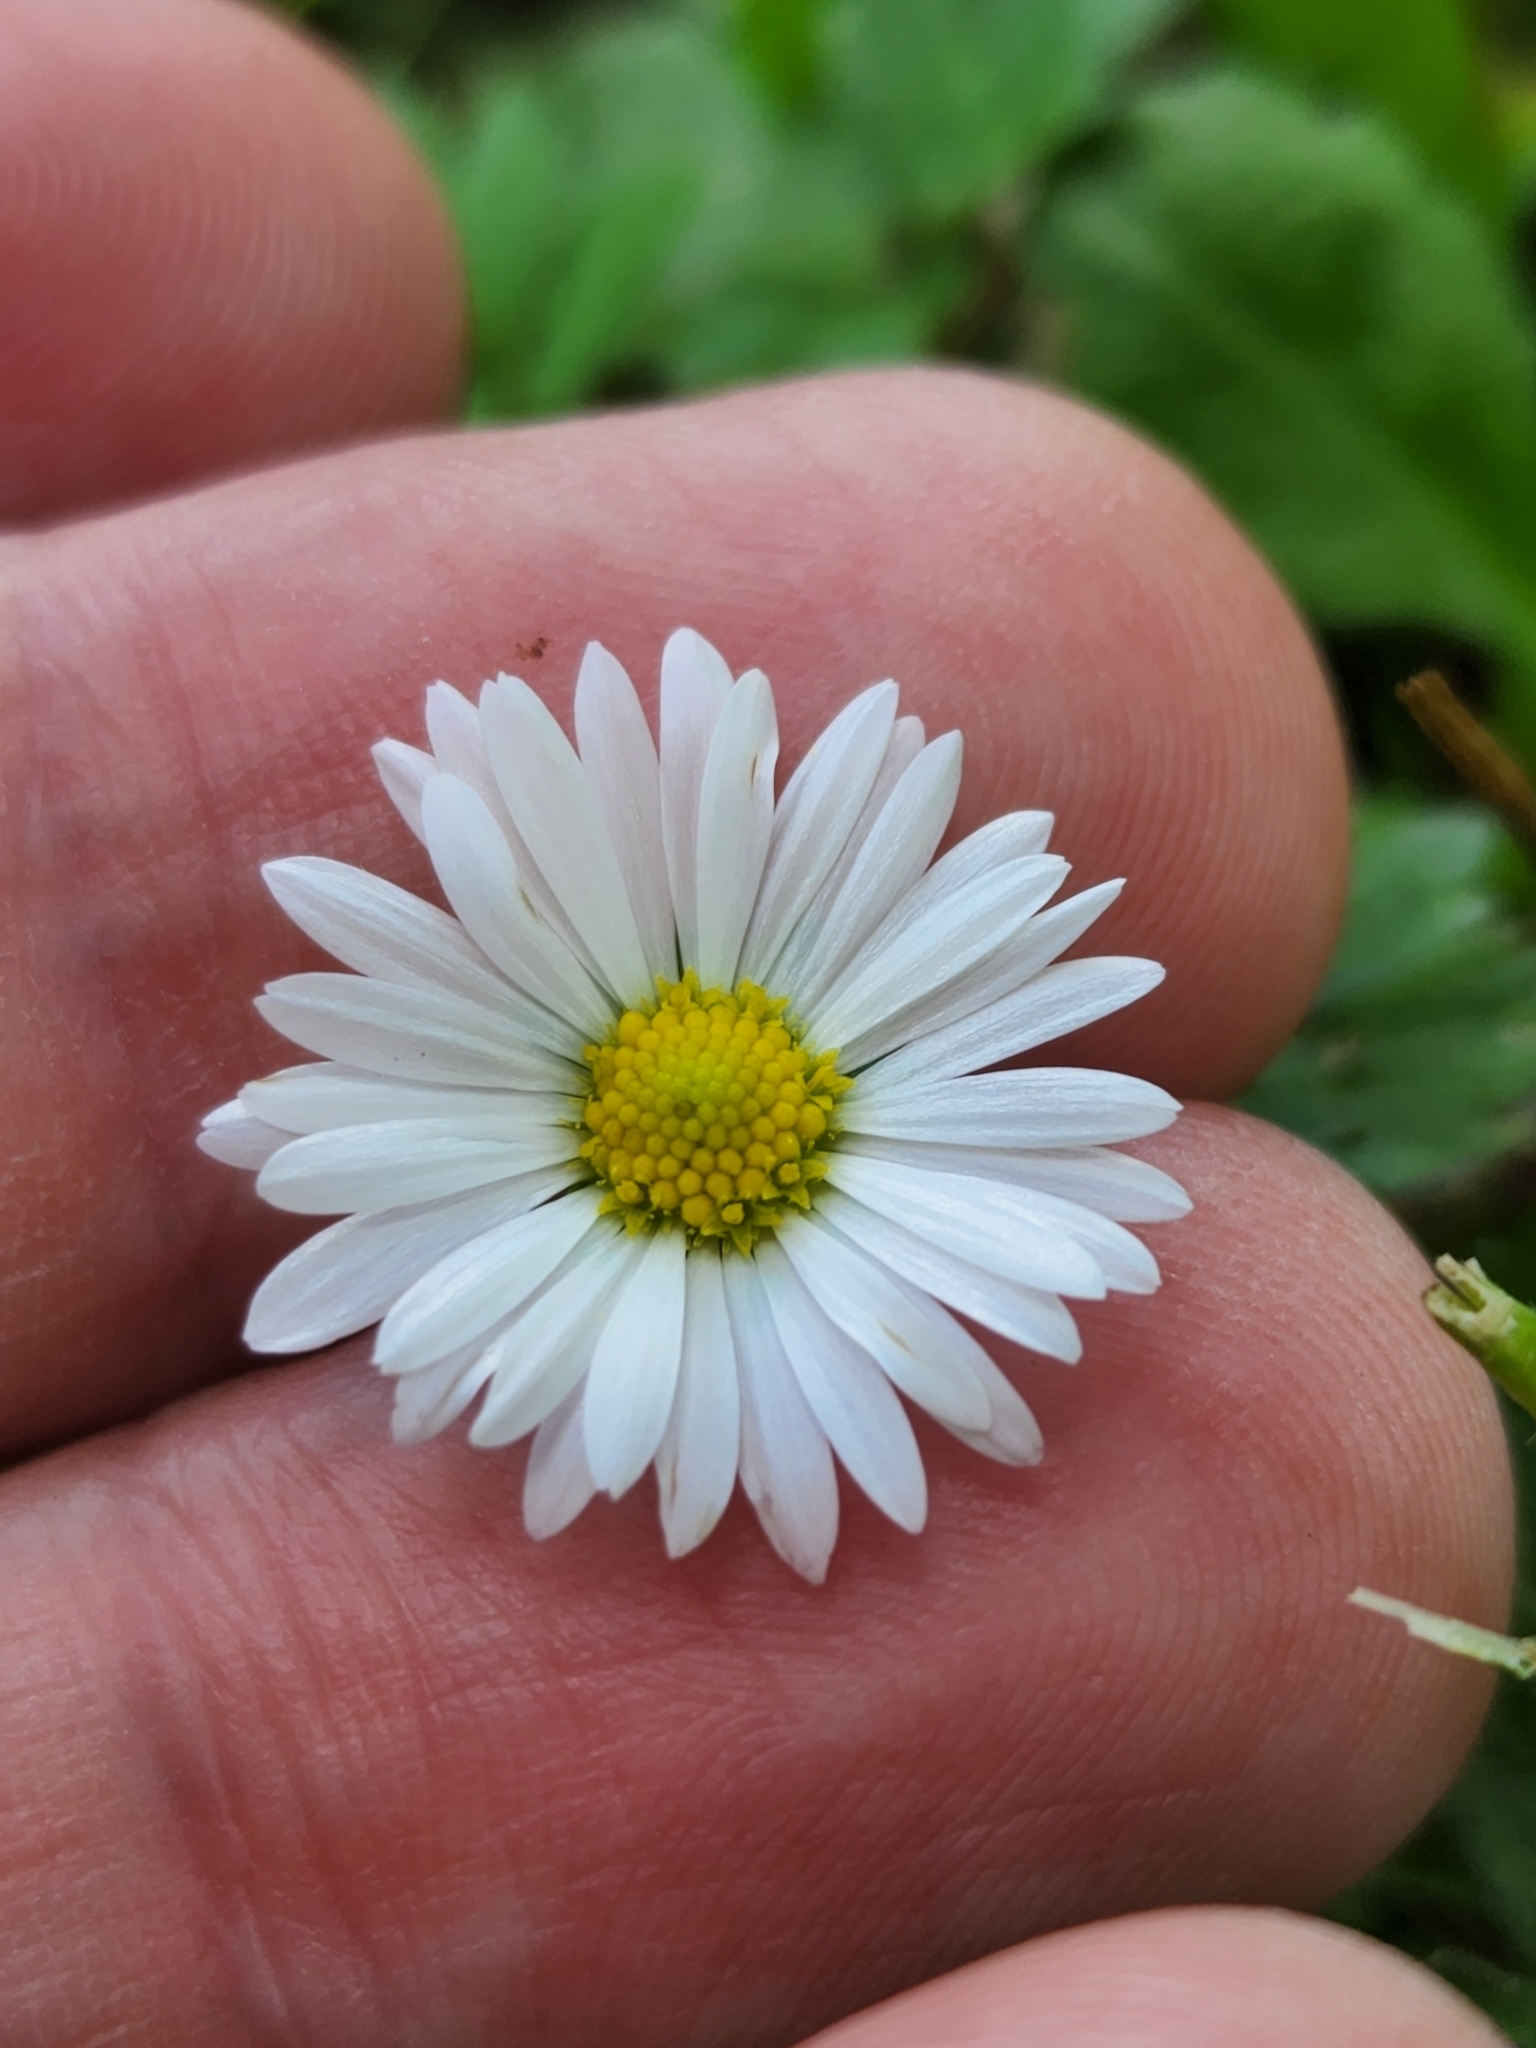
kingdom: Plantae
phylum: Tracheophyta
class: Magnoliopsida
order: Asterales
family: Asteraceae
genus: Bellis
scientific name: Bellis perennis
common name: Lawndaisy
